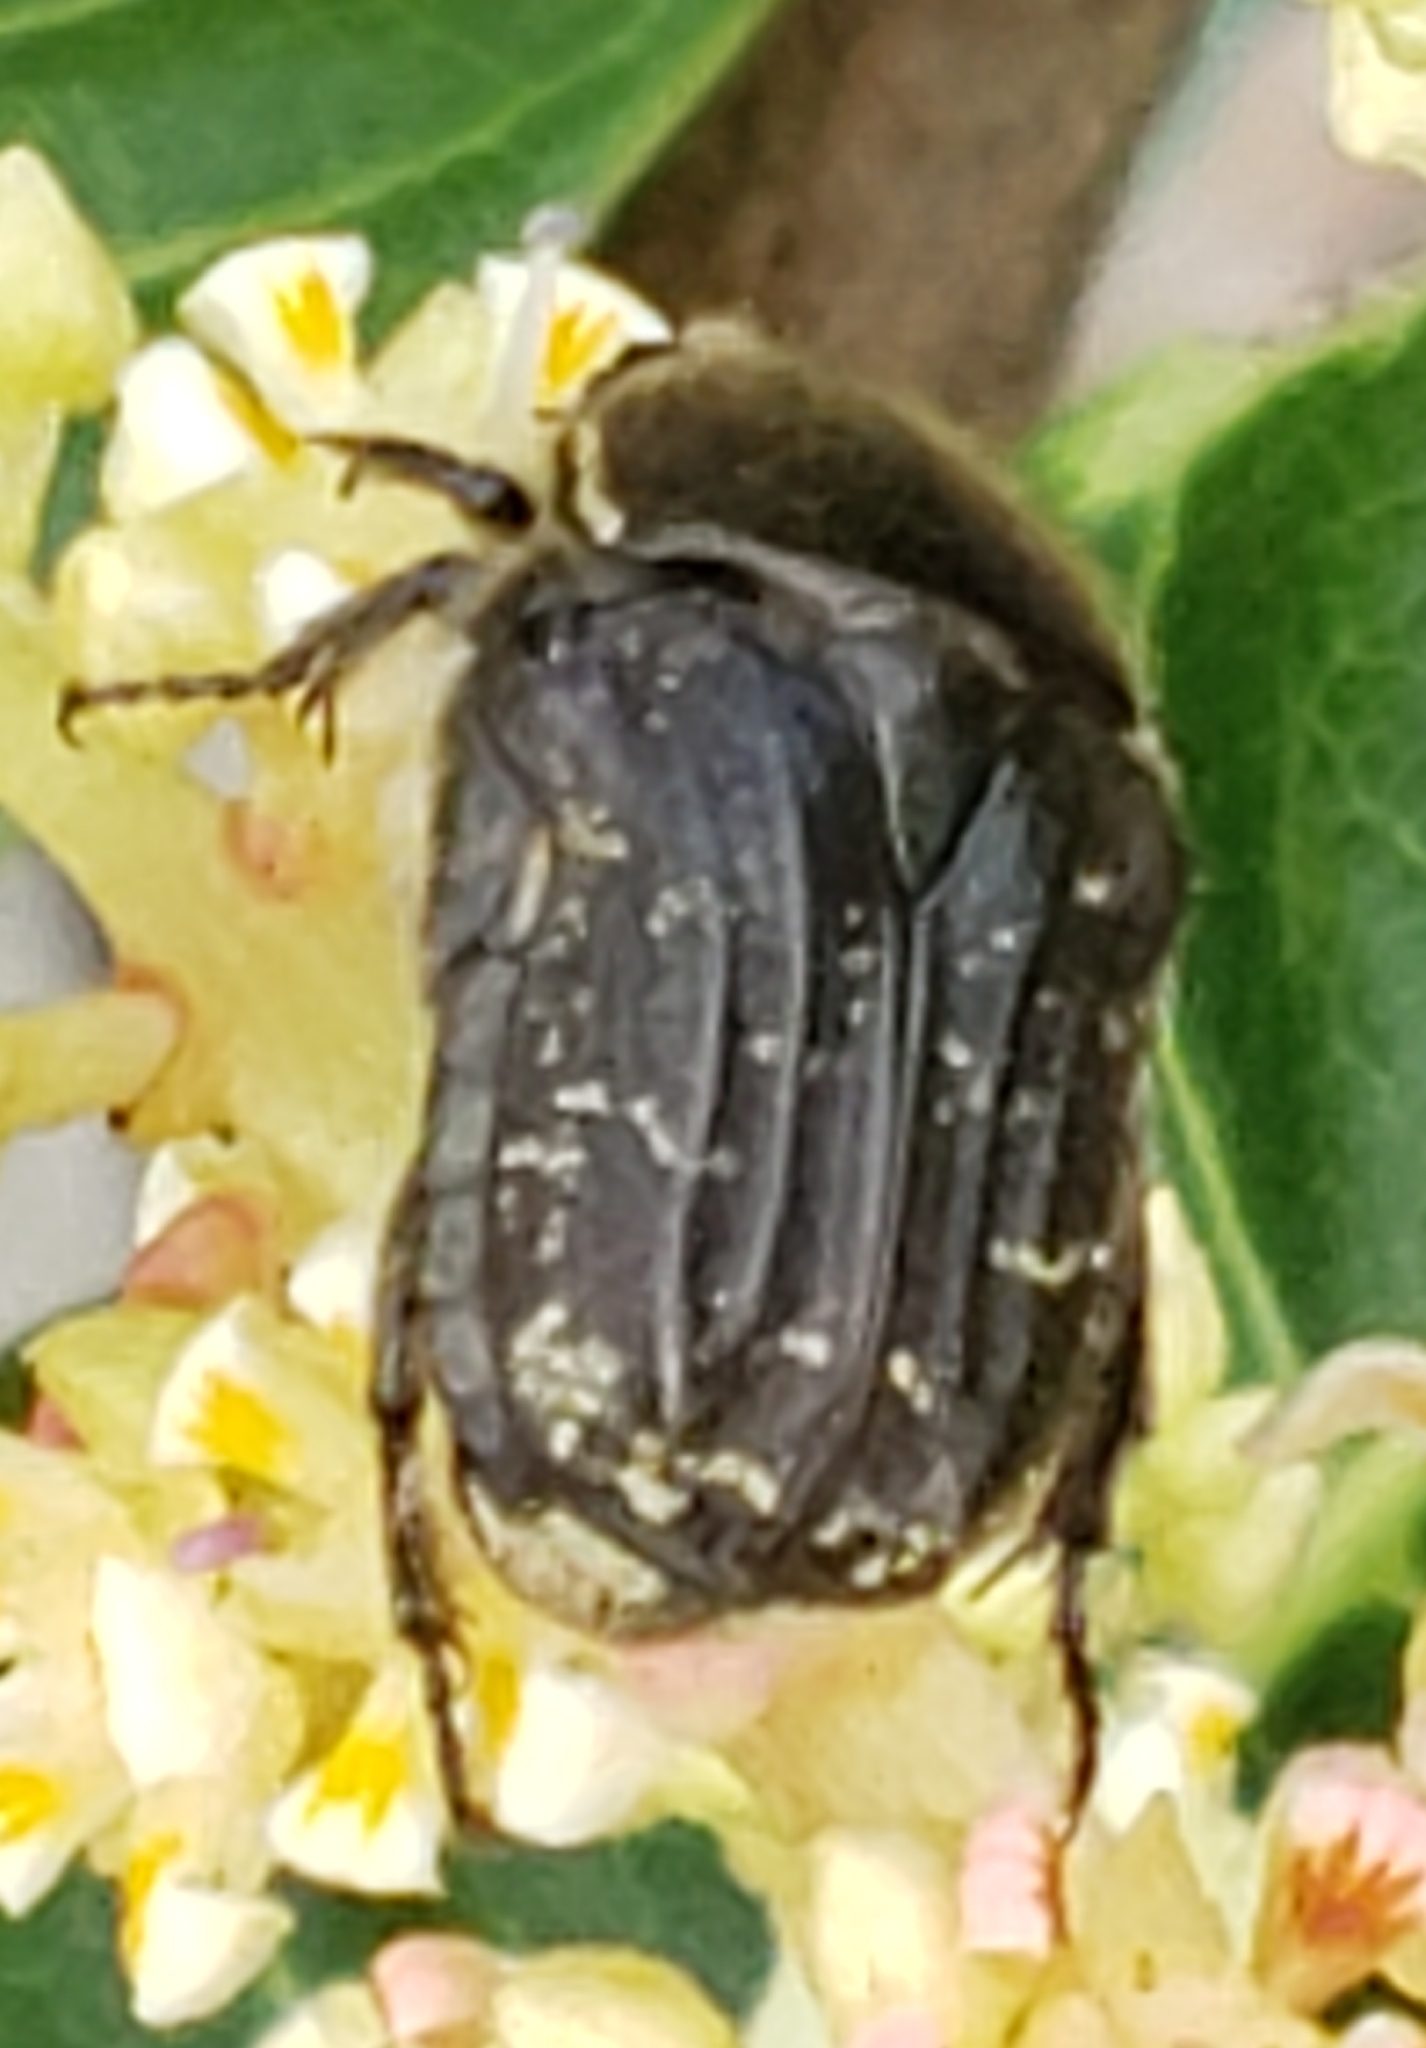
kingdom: Animalia
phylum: Arthropoda
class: Insecta
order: Coleoptera
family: Scarabaeidae
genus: Euphoria
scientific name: Euphoria sepulcralis
